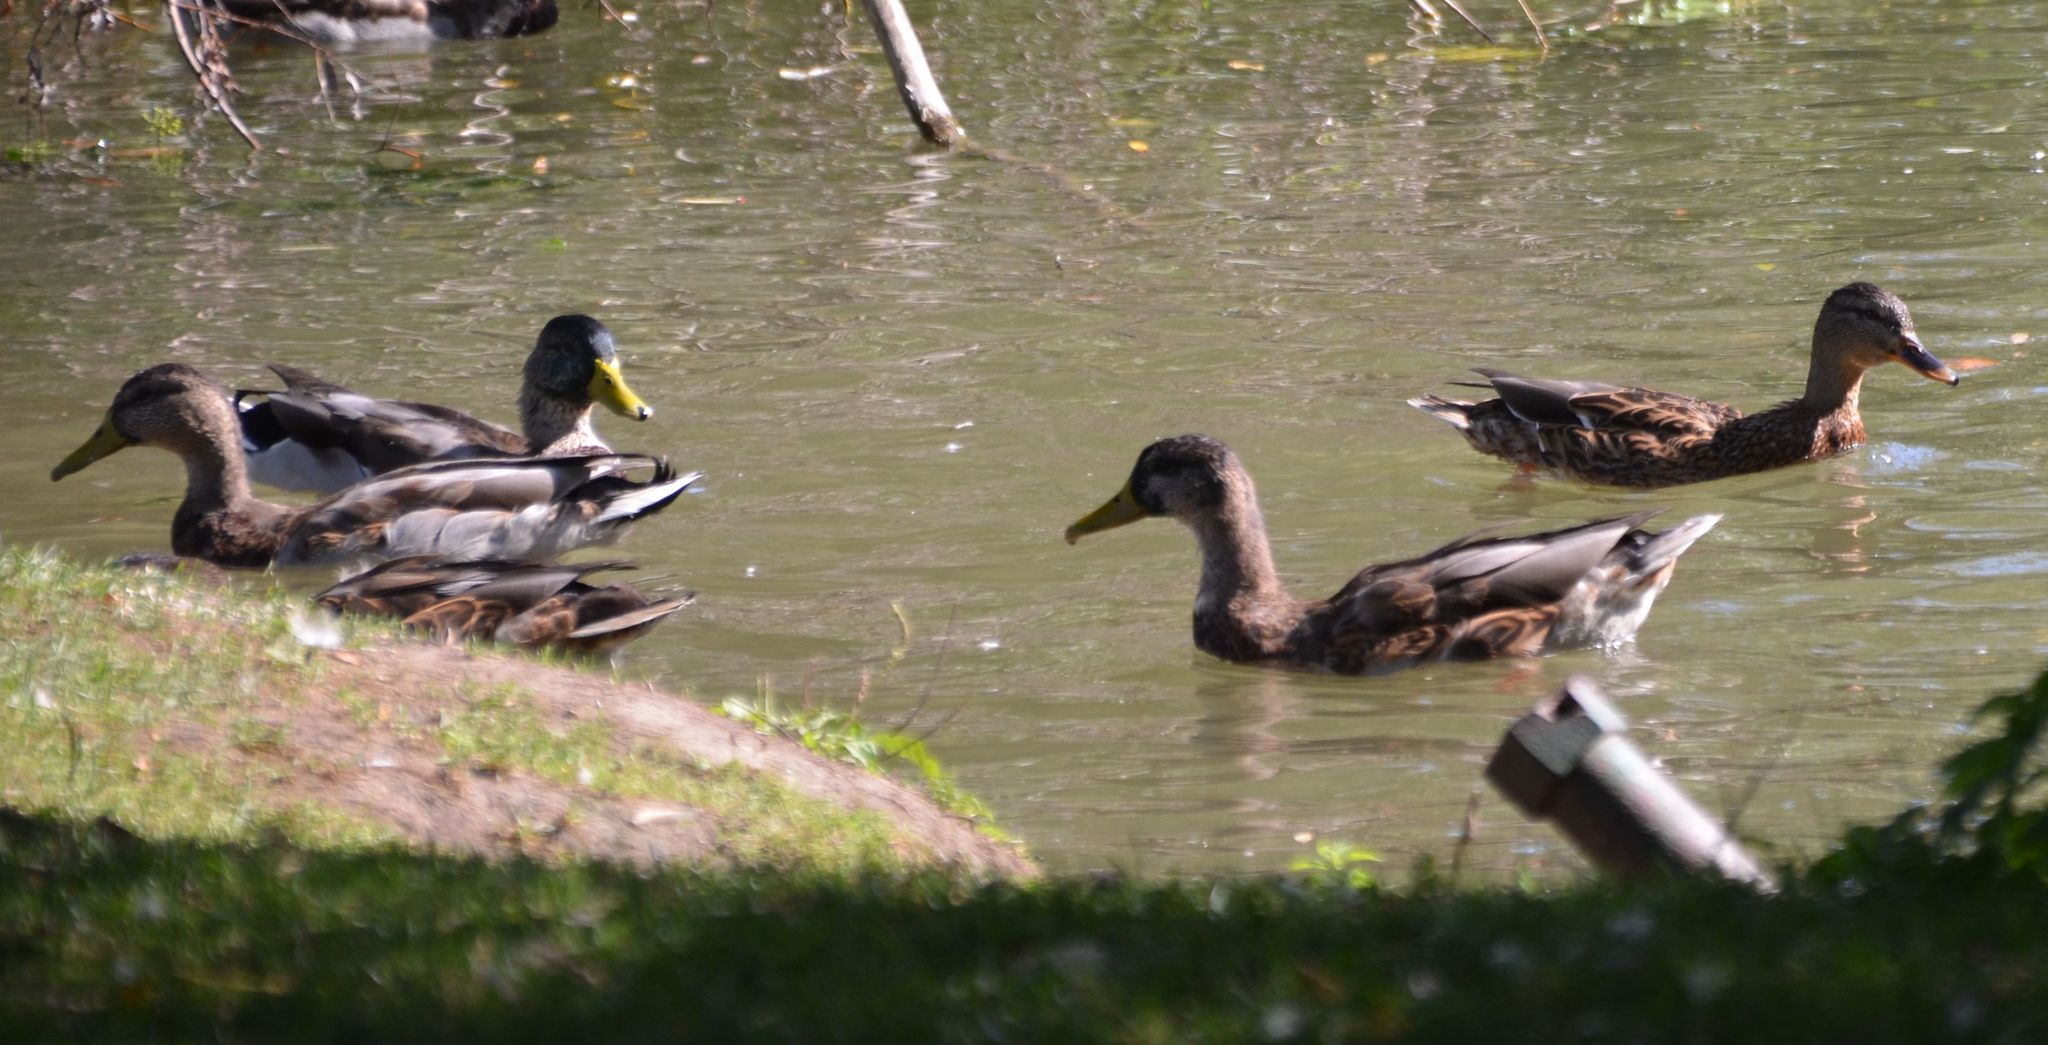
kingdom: Animalia
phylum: Chordata
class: Aves
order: Anseriformes
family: Anatidae
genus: Anas
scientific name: Anas platyrhynchos
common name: Mallard
